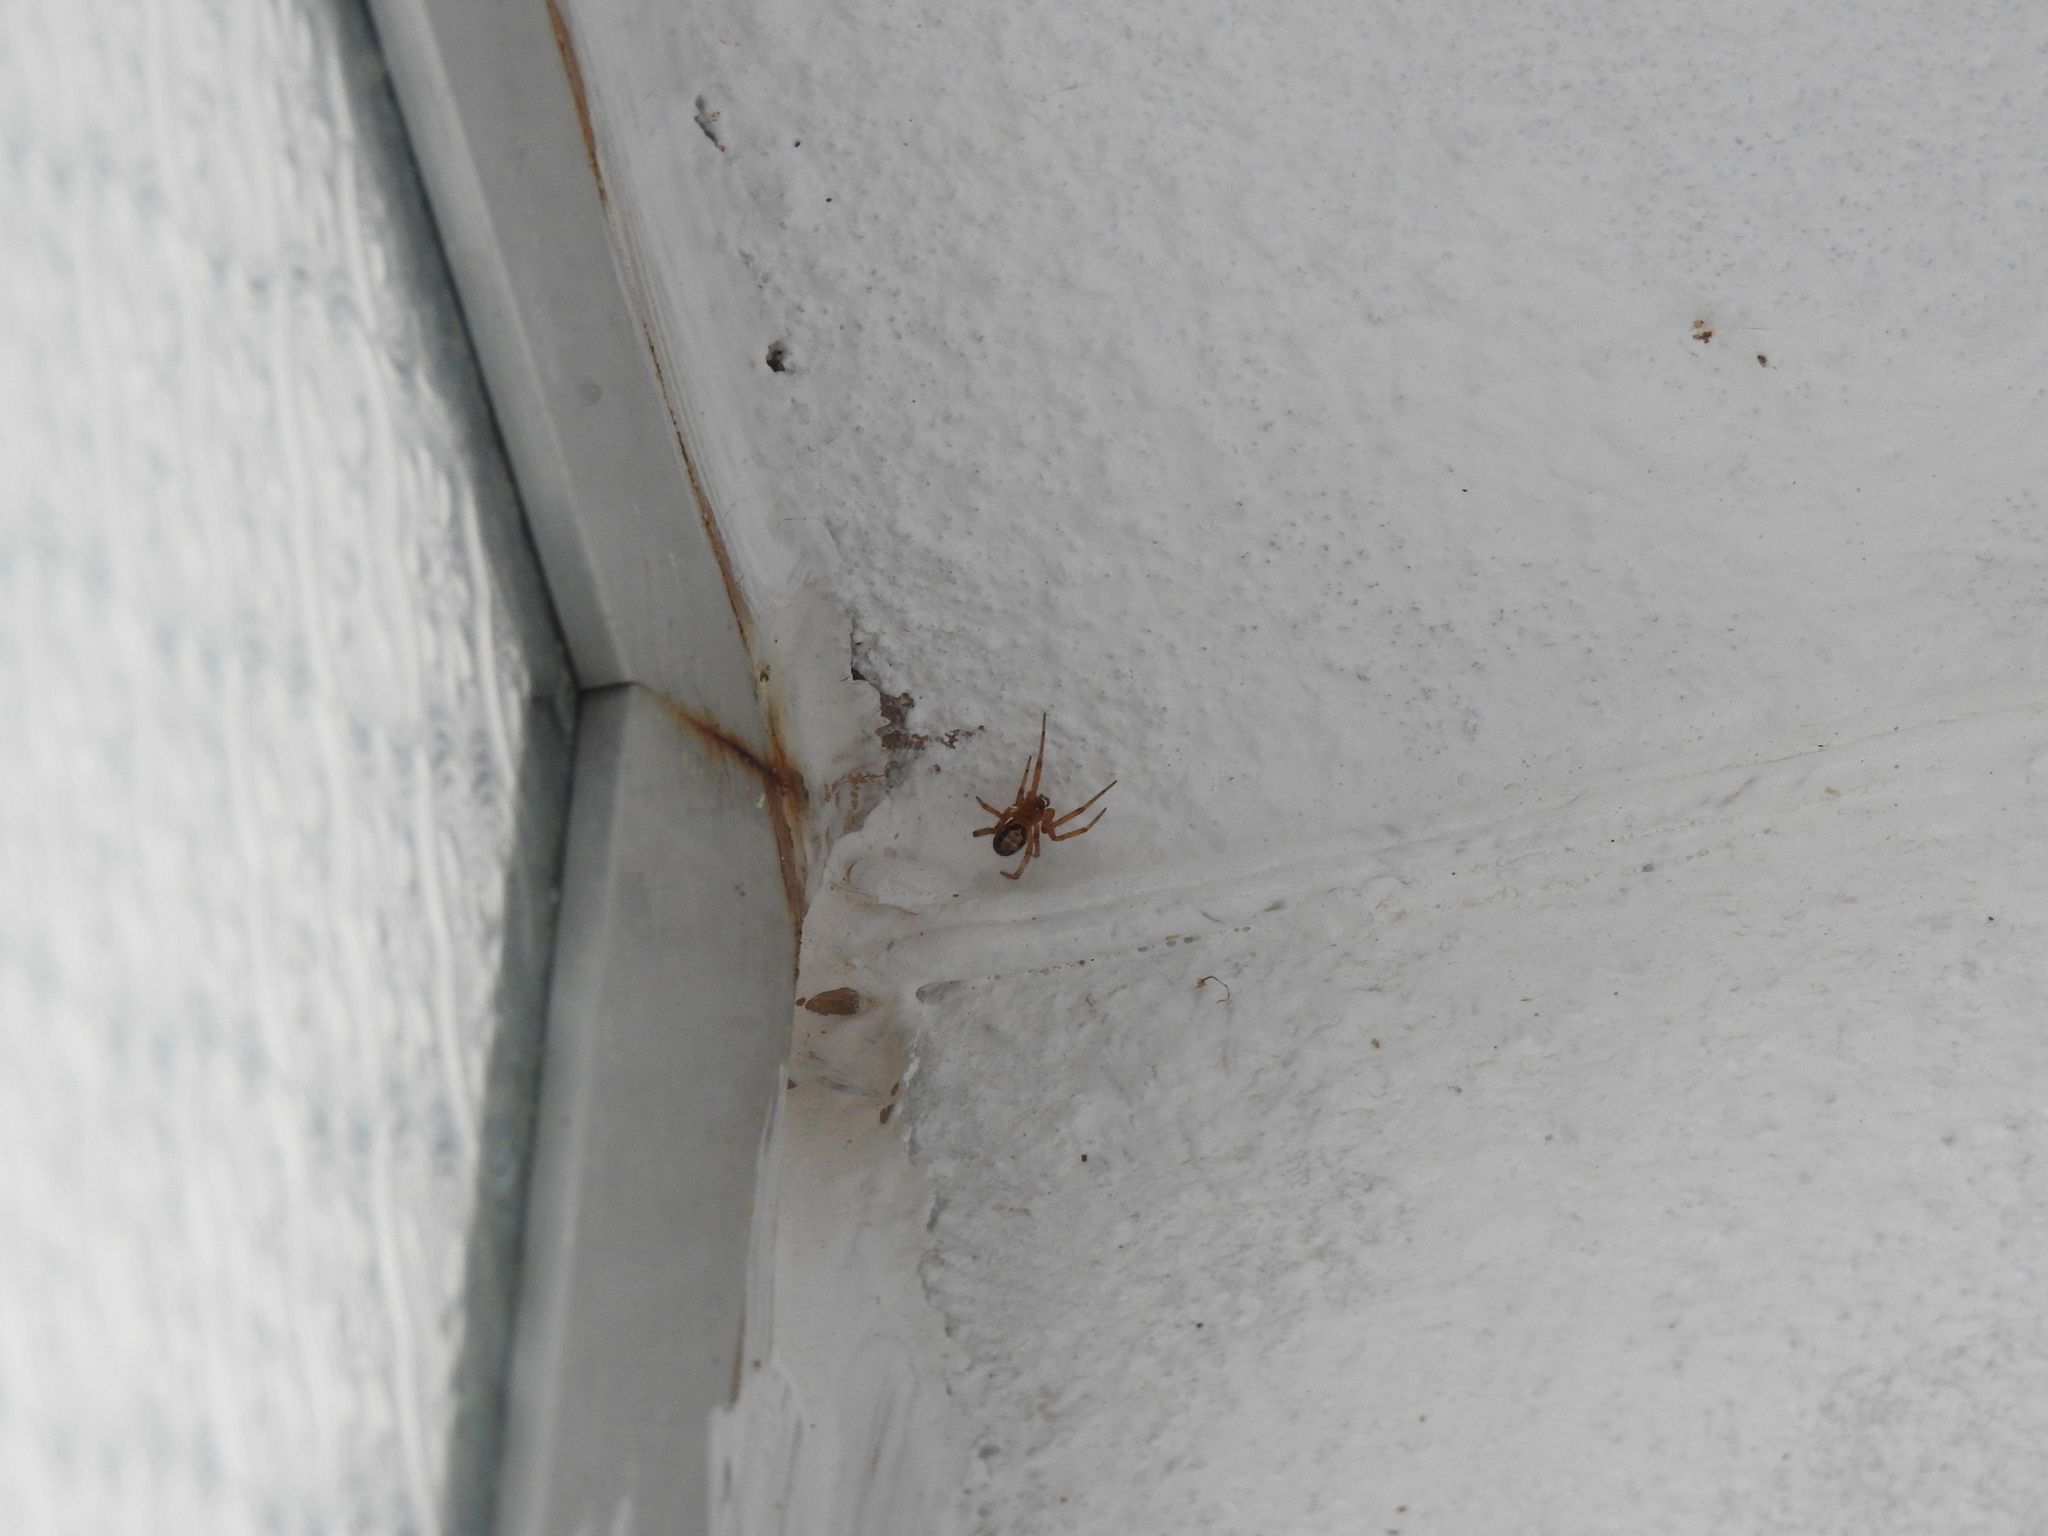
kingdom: Animalia
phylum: Arthropoda
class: Arachnida
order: Araneae
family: Theridiidae
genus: Steatoda
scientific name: Steatoda nobilis
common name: Cobweb weaver
